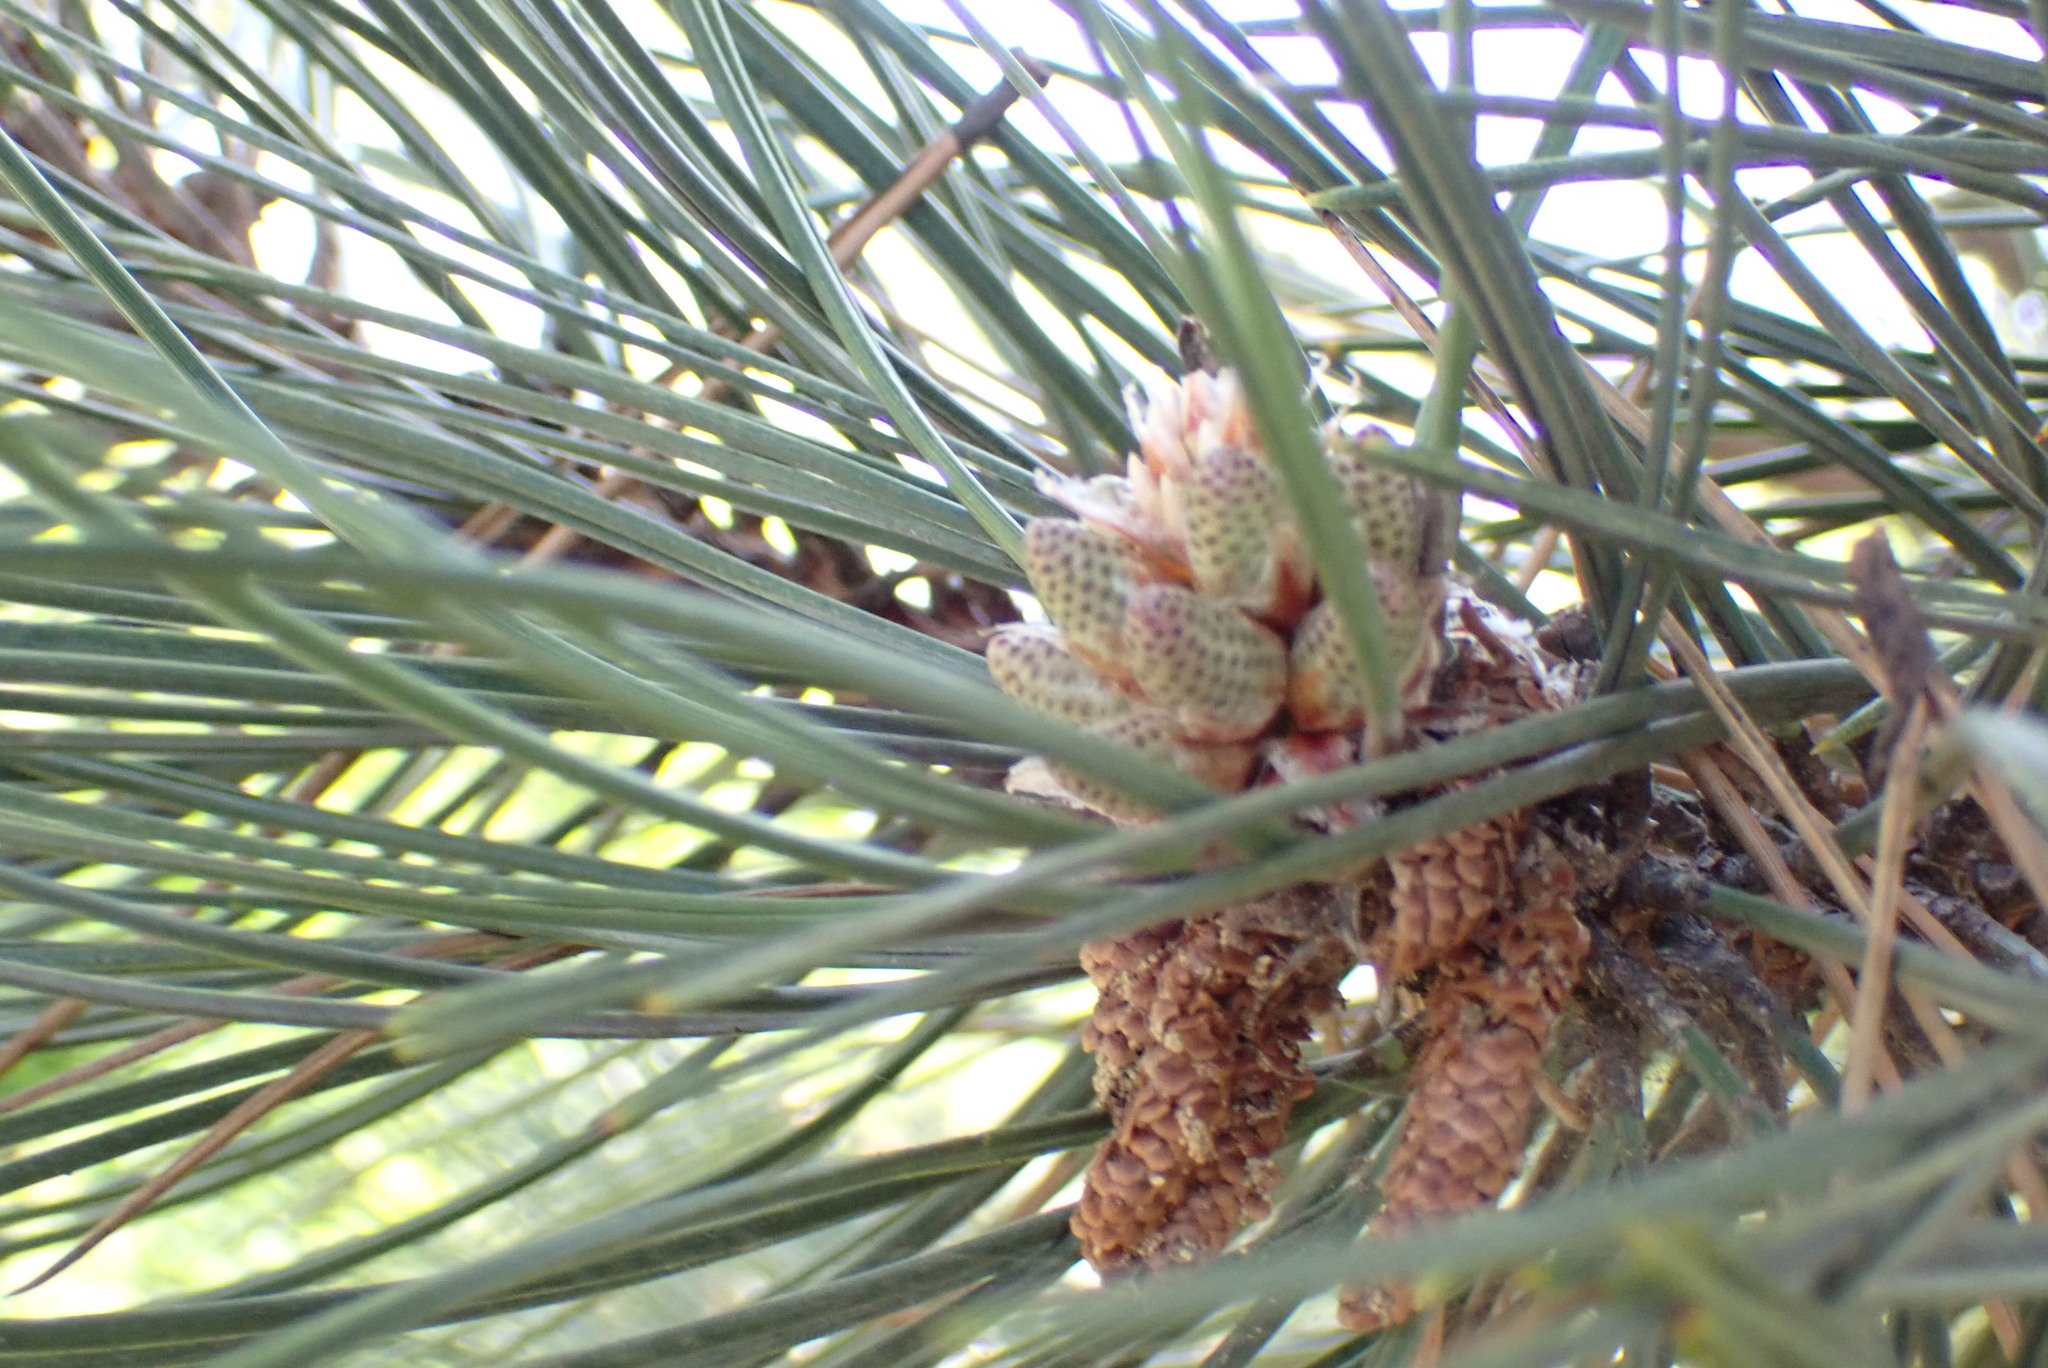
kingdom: Plantae
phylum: Tracheophyta
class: Pinopsida
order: Pinales
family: Pinaceae
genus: Pinus
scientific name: Pinus contorta
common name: Lodgepole pine
